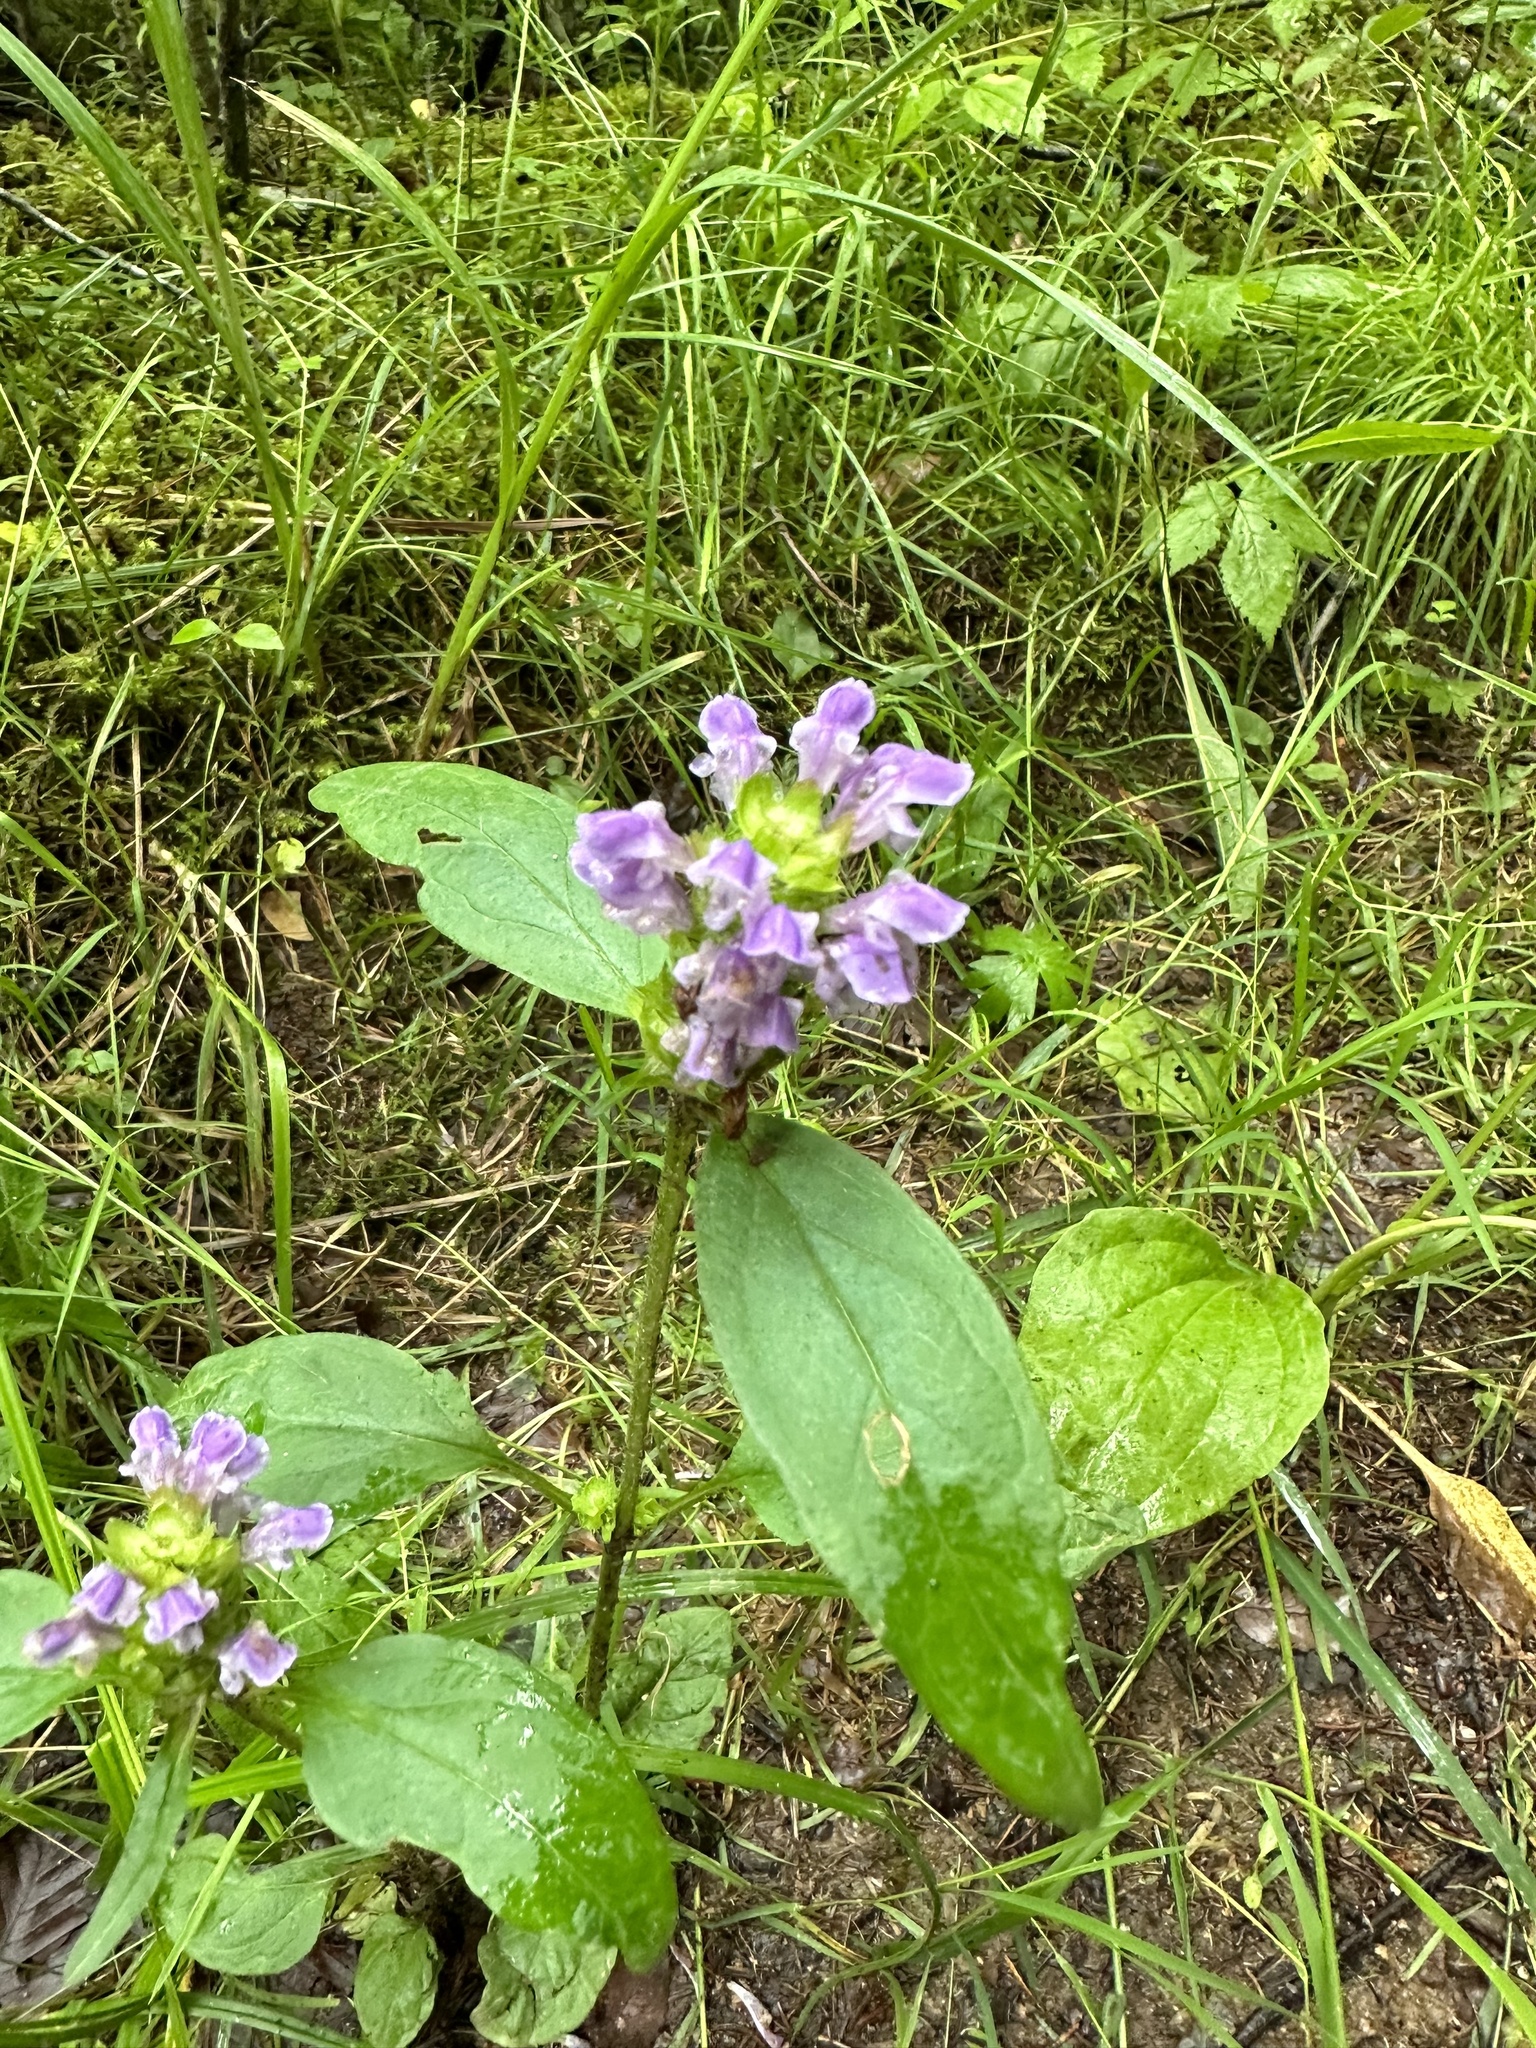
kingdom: Plantae
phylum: Tracheophyta
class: Magnoliopsida
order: Lamiales
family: Lamiaceae
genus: Prunella
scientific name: Prunella vulgaris
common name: Heal-all
